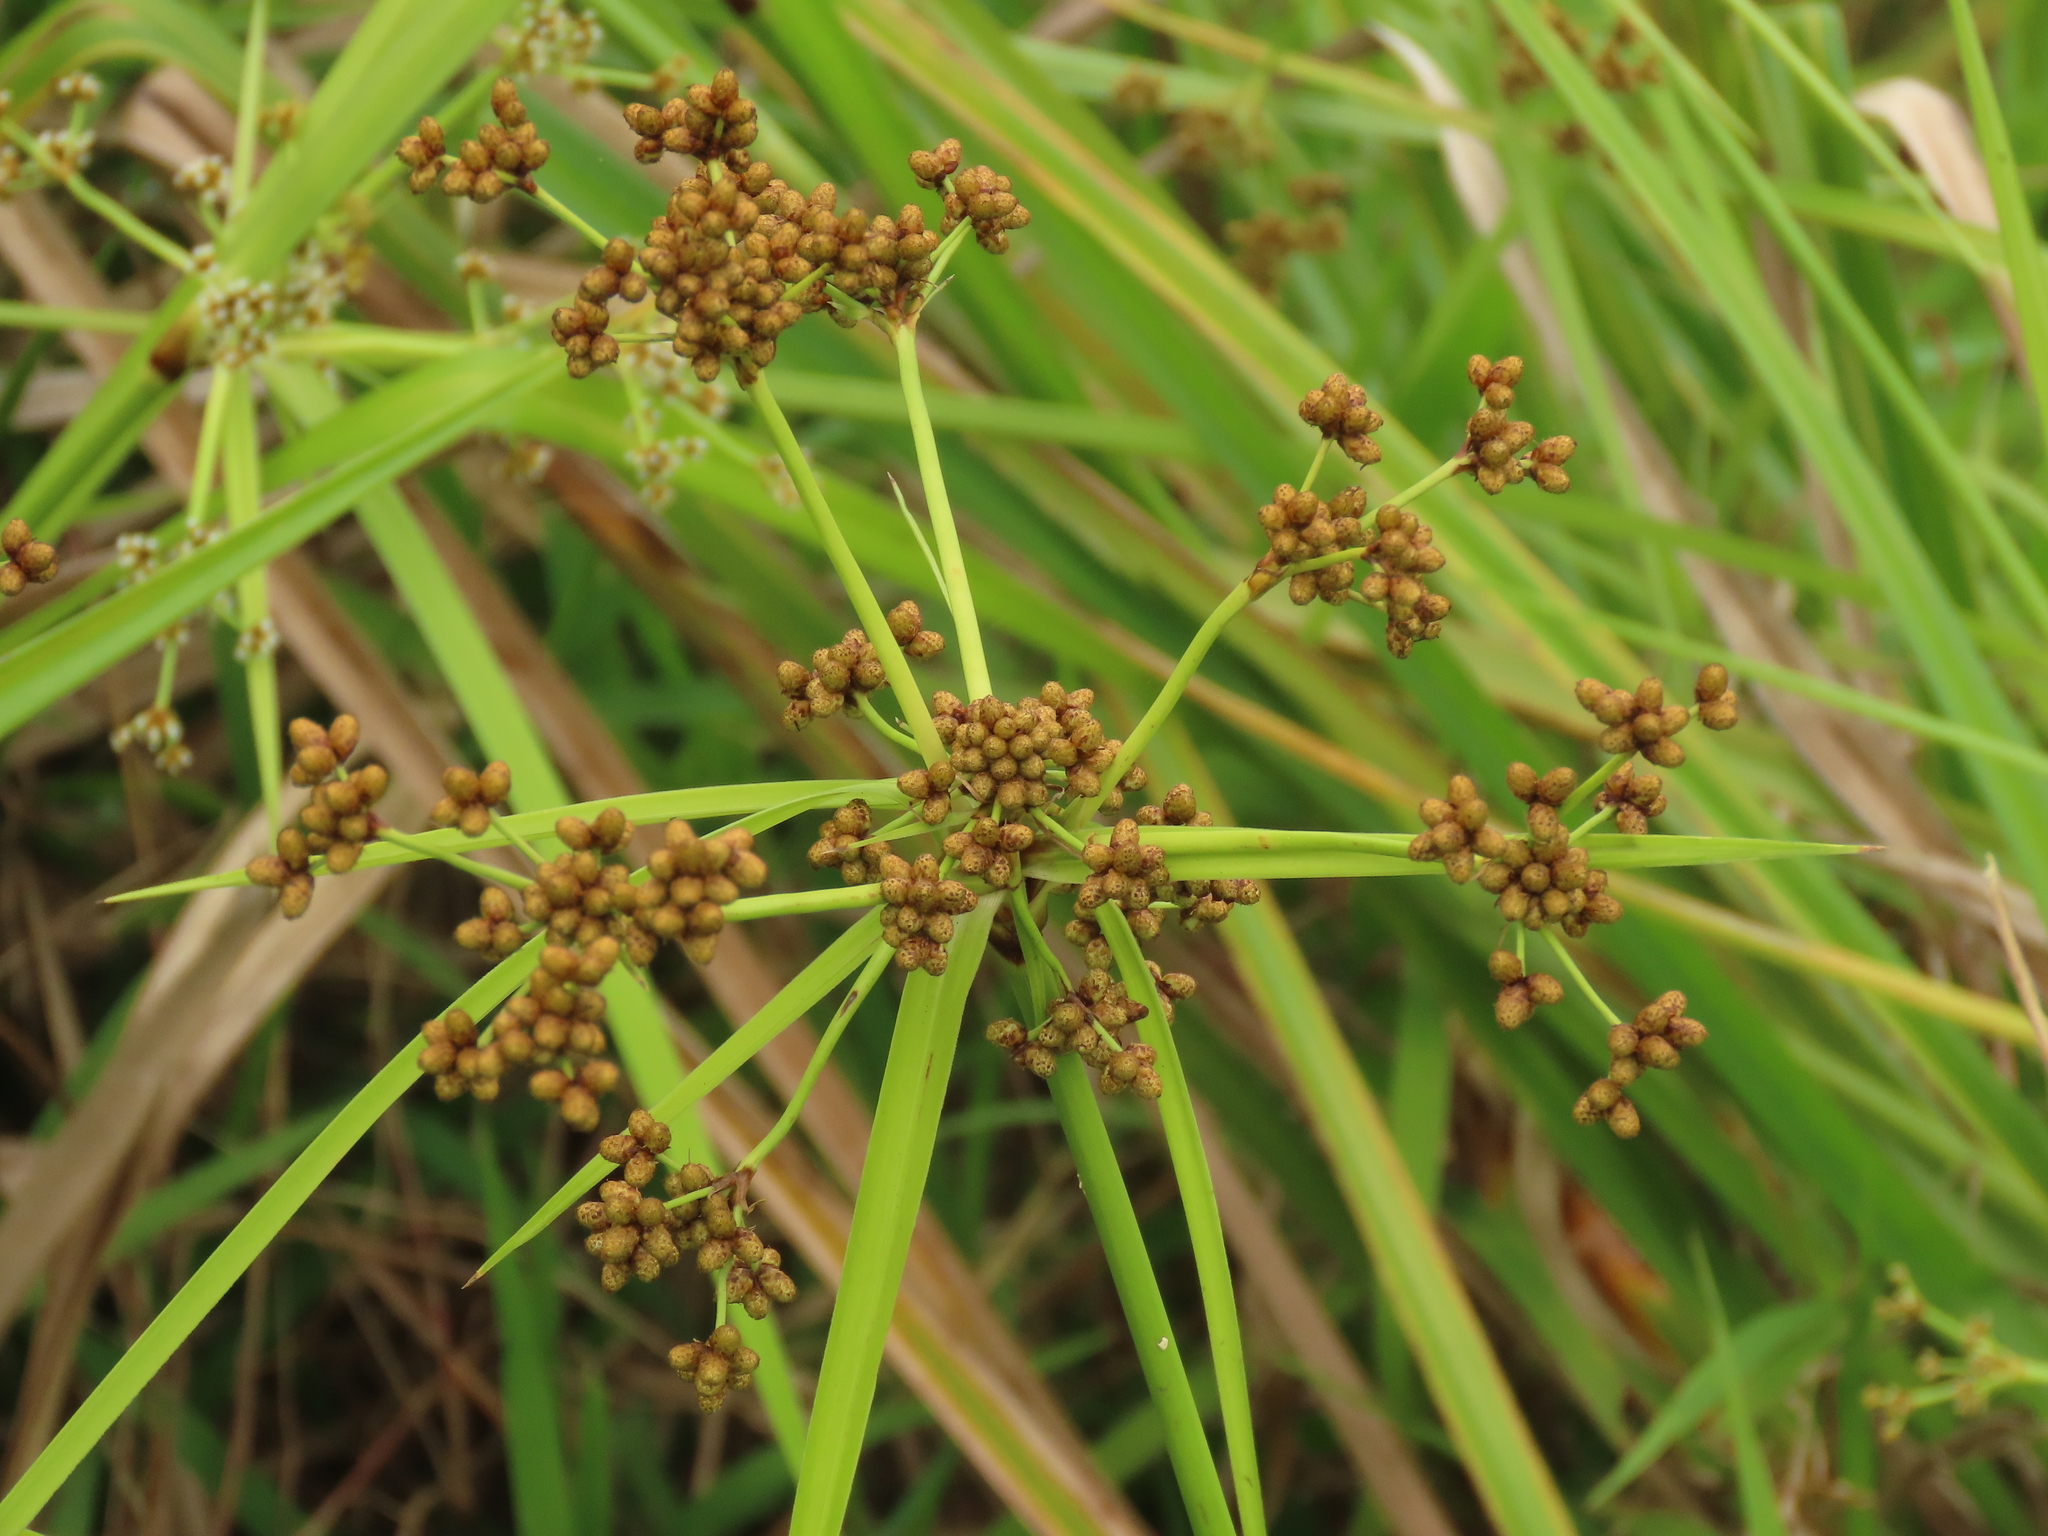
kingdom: Plantae
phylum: Tracheophyta
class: Liliopsida
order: Poales
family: Cyperaceae
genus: Scirpus
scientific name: Scirpus ternatanus
